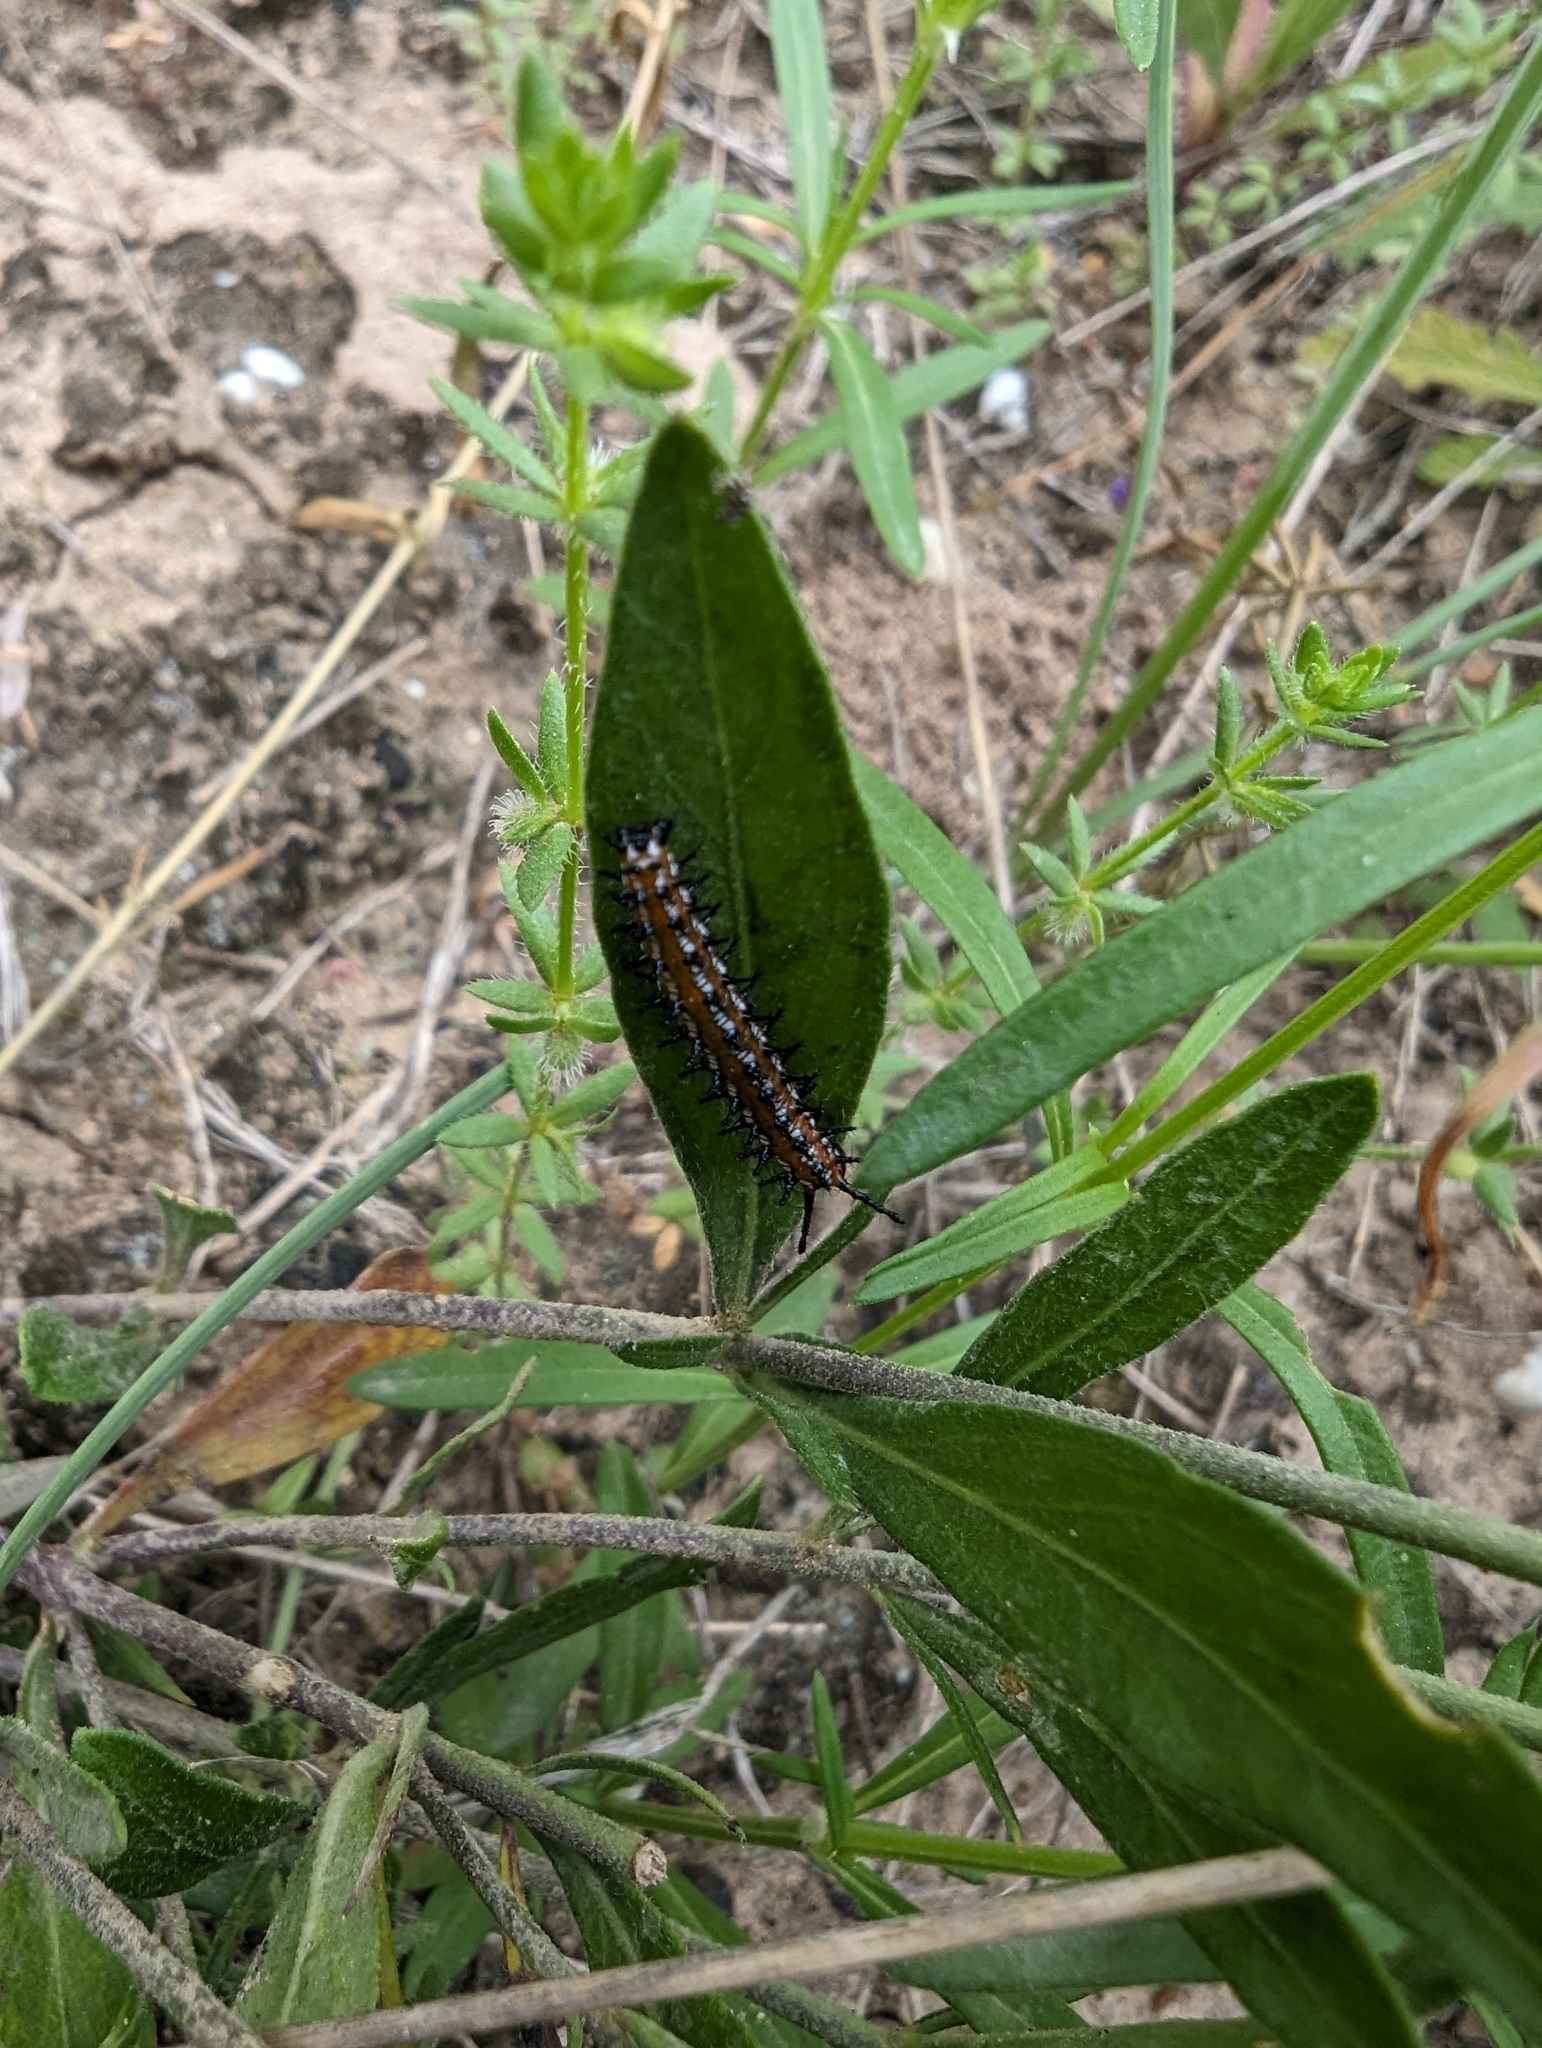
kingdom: Animalia
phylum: Arthropoda
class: Insecta
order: Lepidoptera
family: Nymphalidae
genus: Euptoieta
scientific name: Euptoieta claudia
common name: Variegated fritillary
